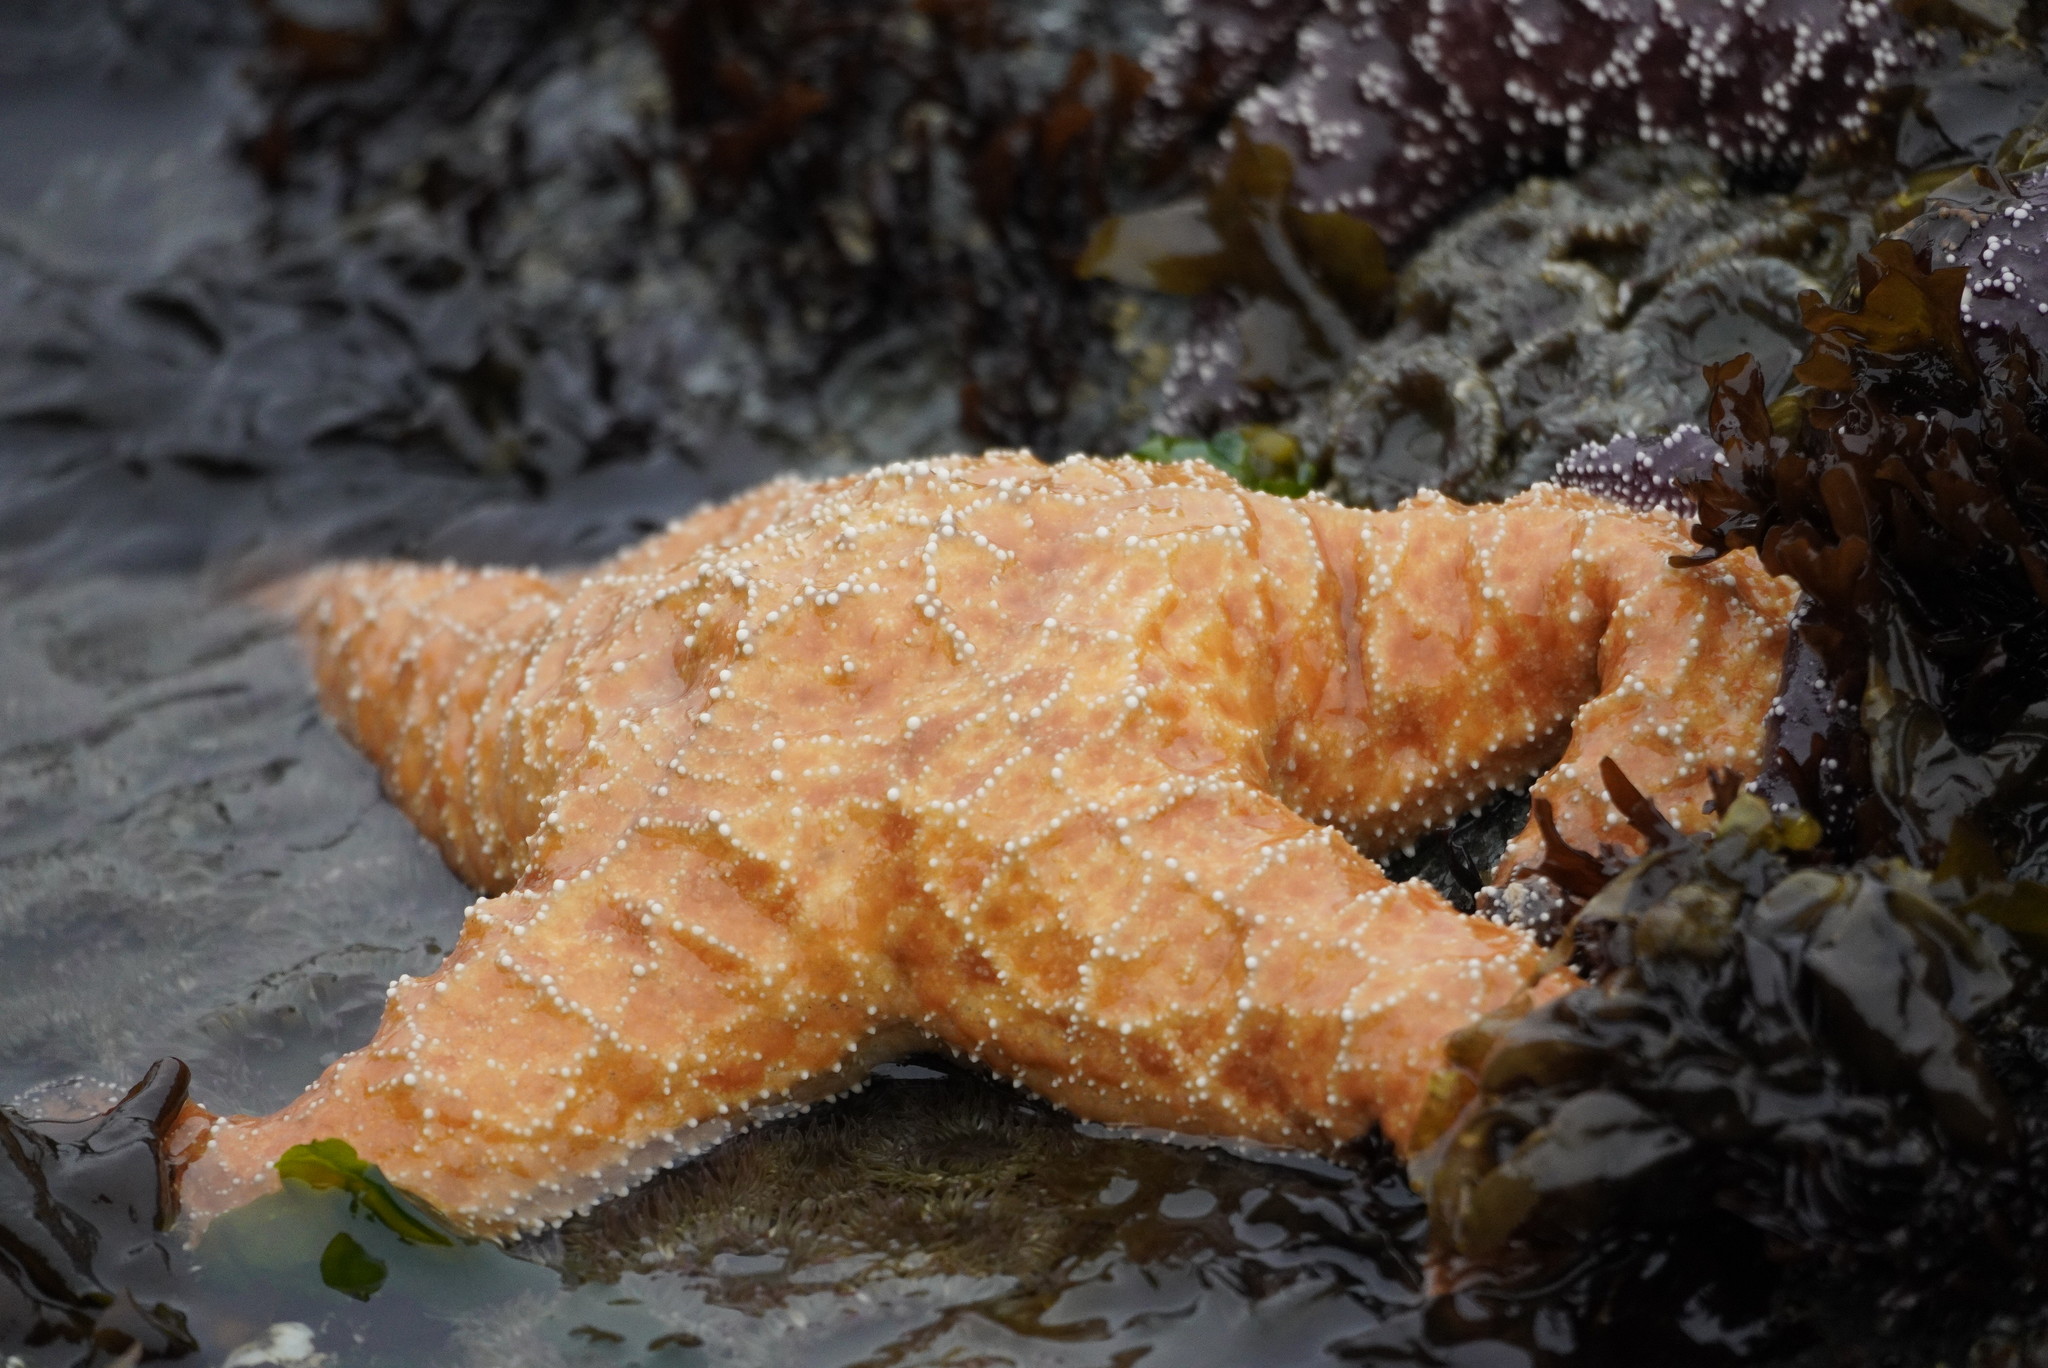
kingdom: Animalia
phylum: Echinodermata
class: Asteroidea
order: Forcipulatida
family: Asteriidae
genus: Pisaster
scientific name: Pisaster ochraceus
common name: Ochre stars
